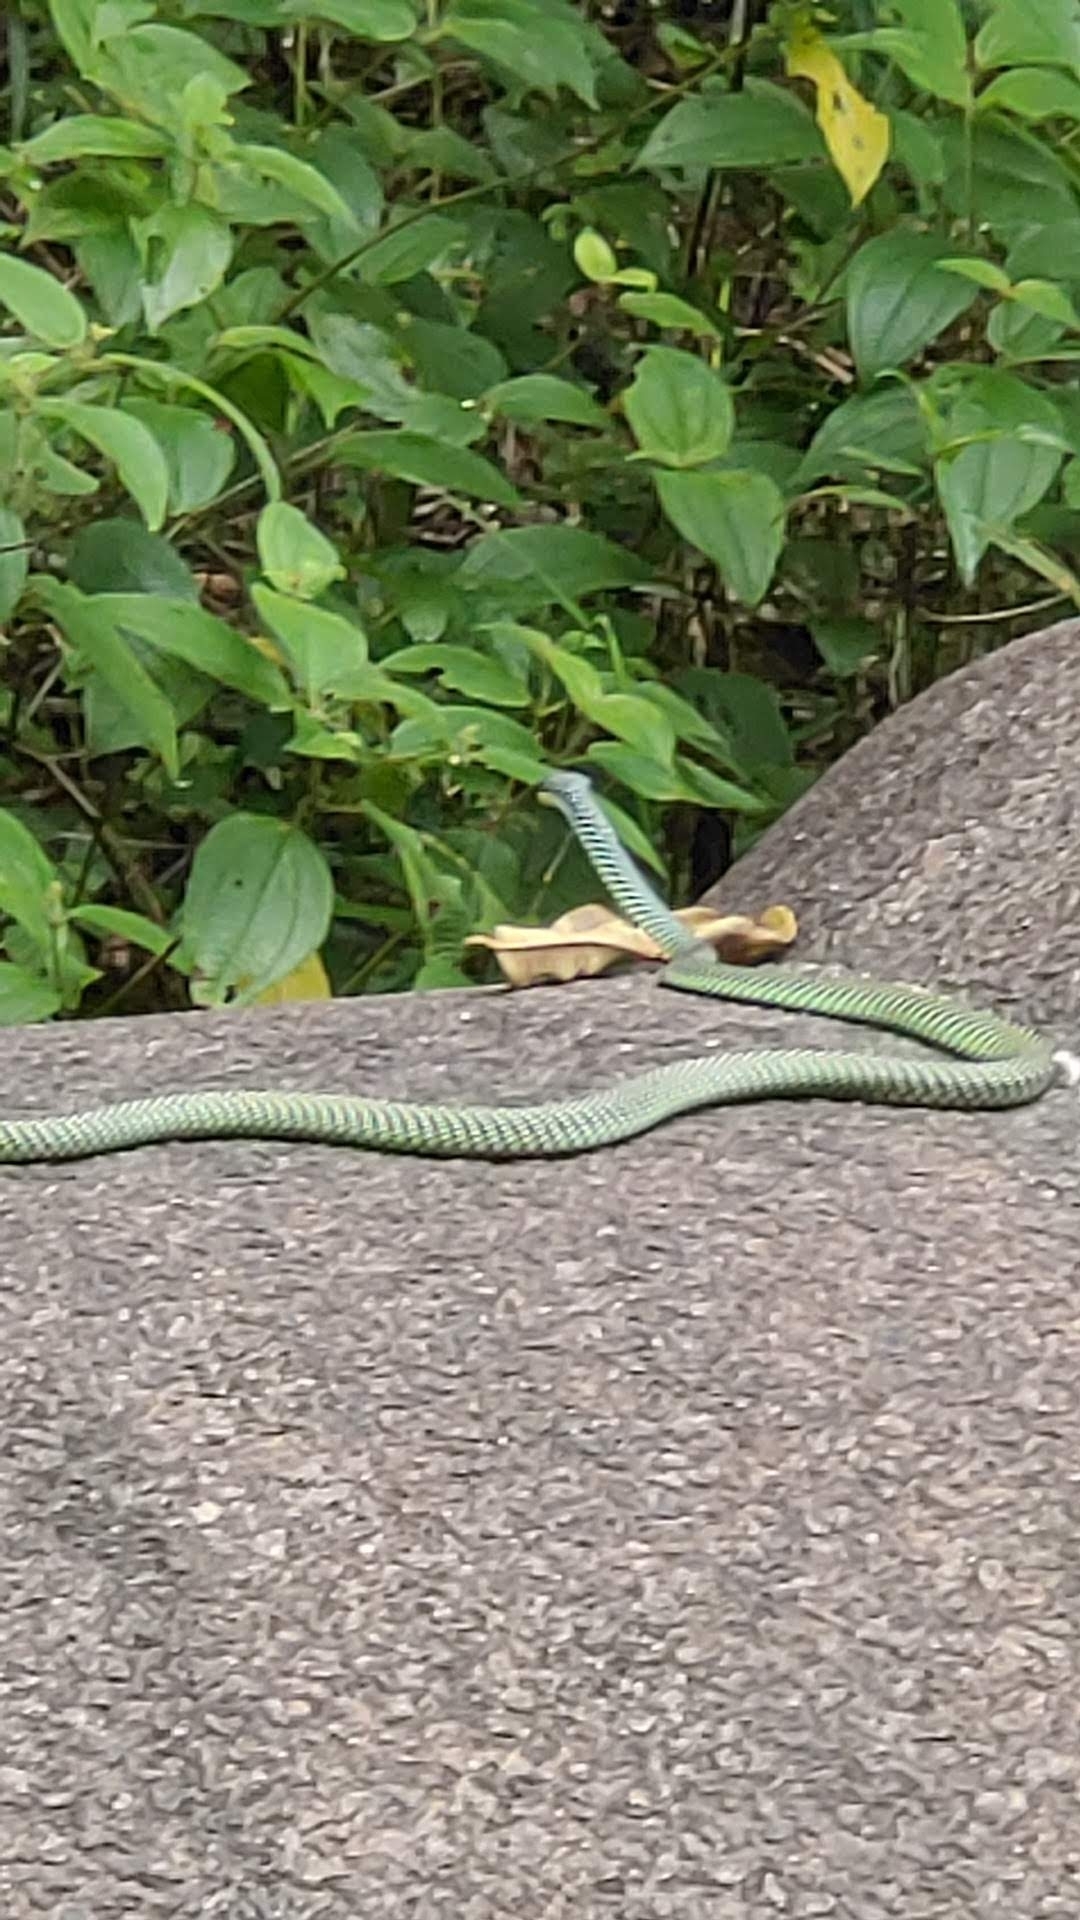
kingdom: Animalia
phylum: Chordata
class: Squamata
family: Colubridae
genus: Chrysopelea
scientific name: Chrysopelea paradisi
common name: Paradise tree snake
